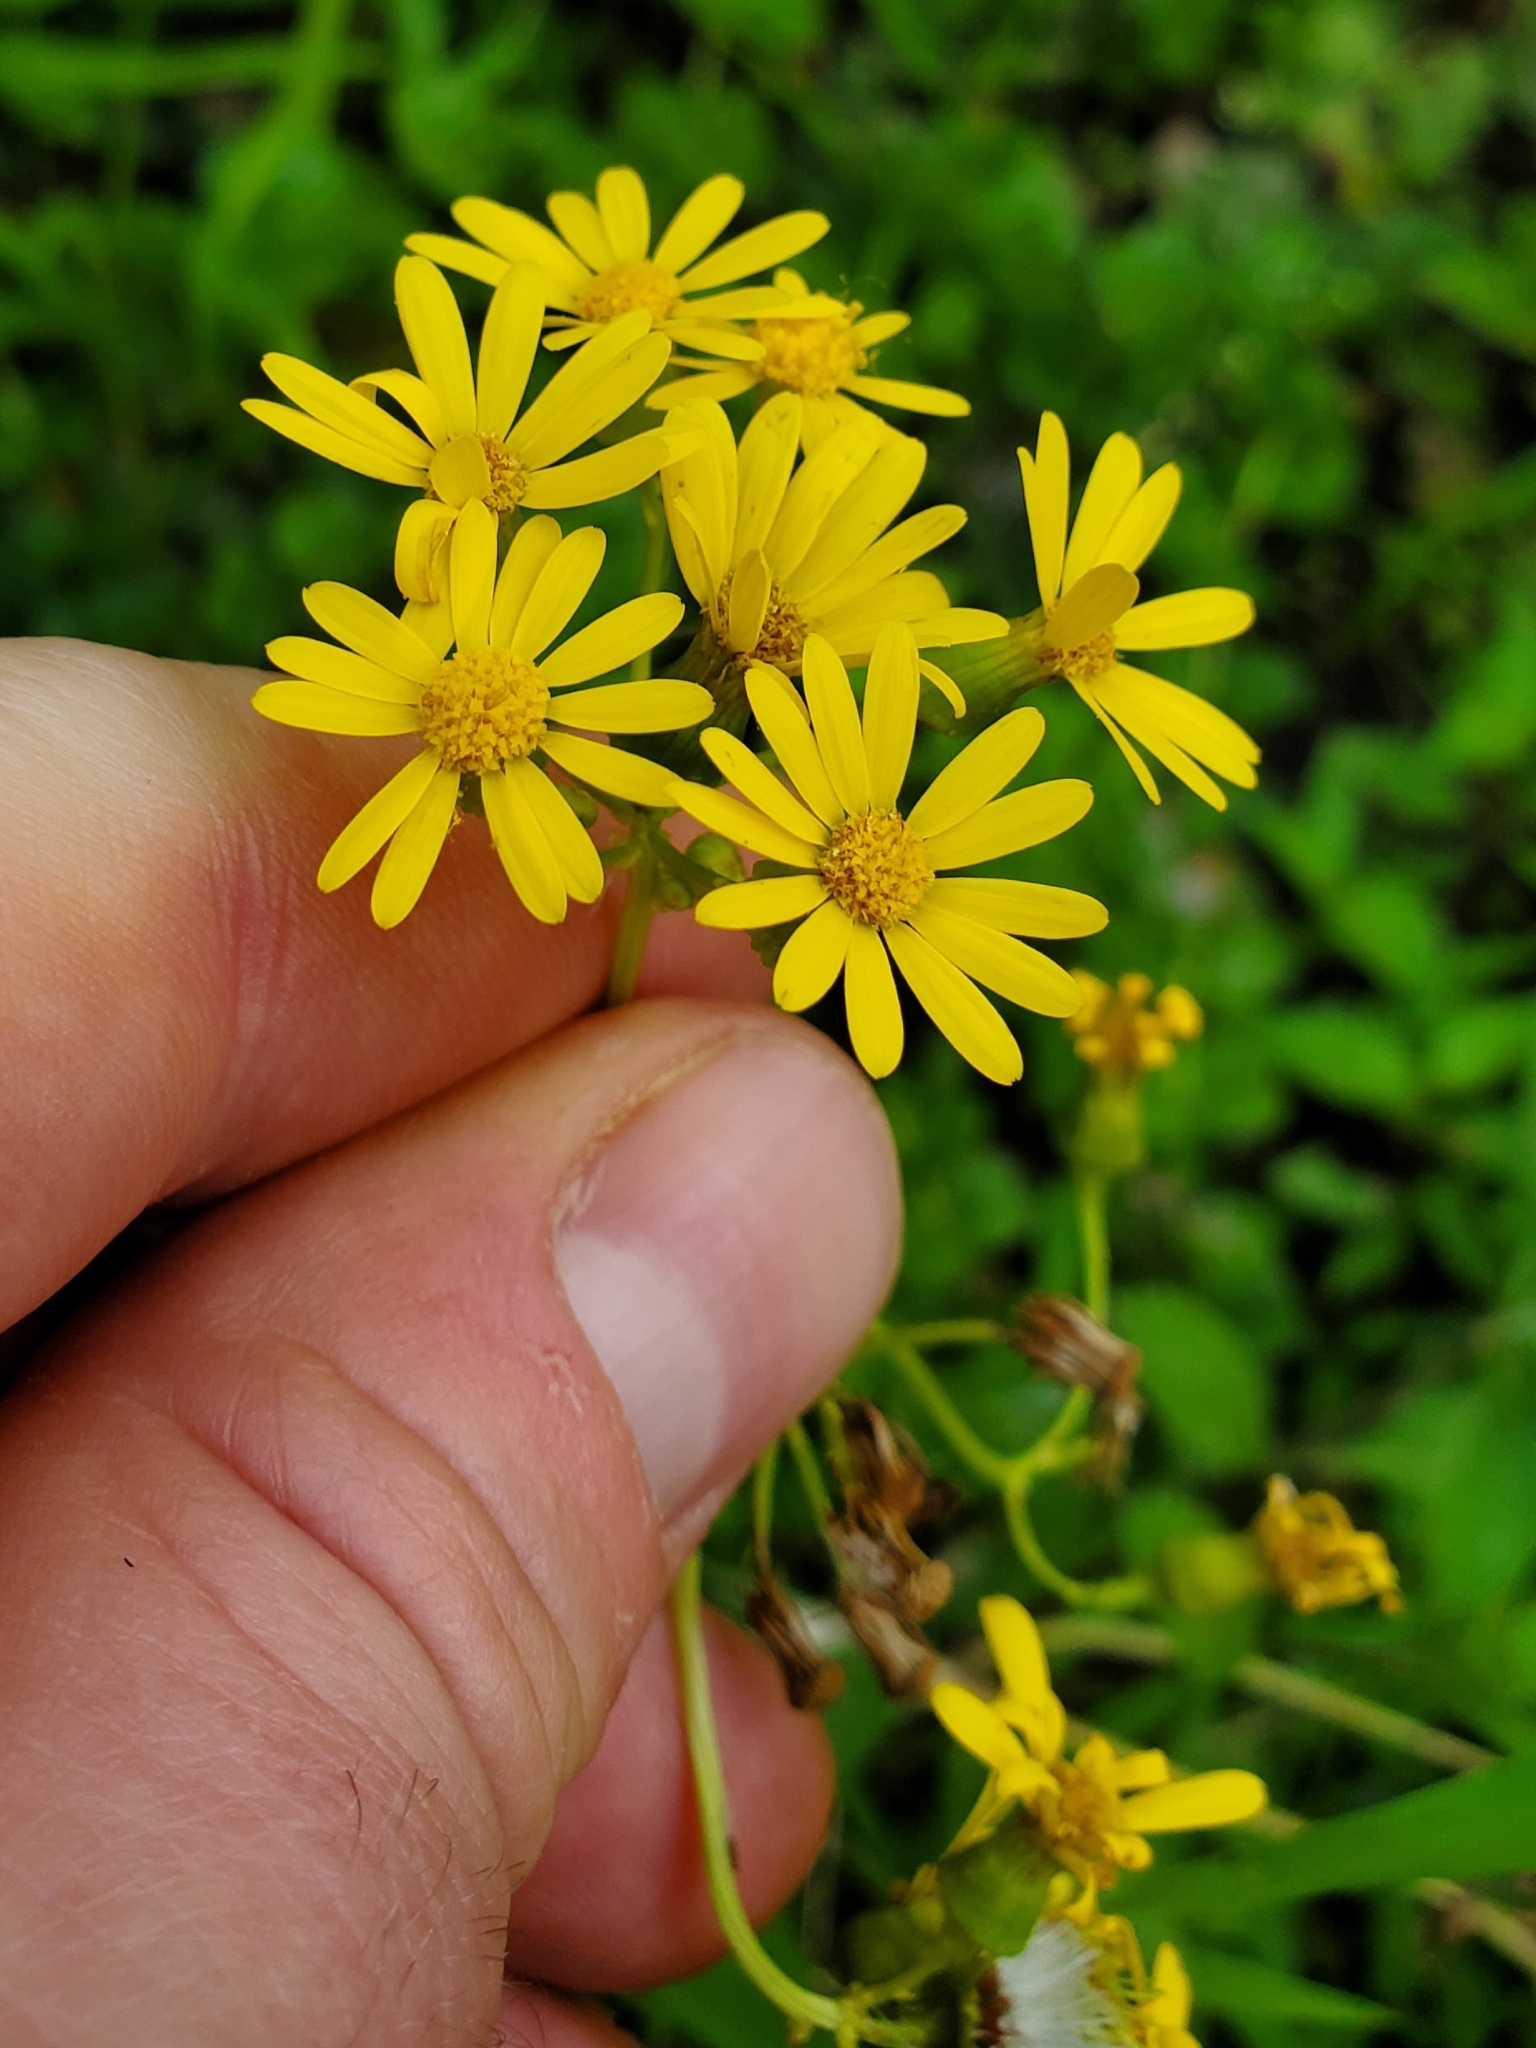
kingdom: Plantae
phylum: Tracheophyta
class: Magnoliopsida
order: Asterales
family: Asteraceae
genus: Packera
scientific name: Packera glabella
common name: Butterweed
